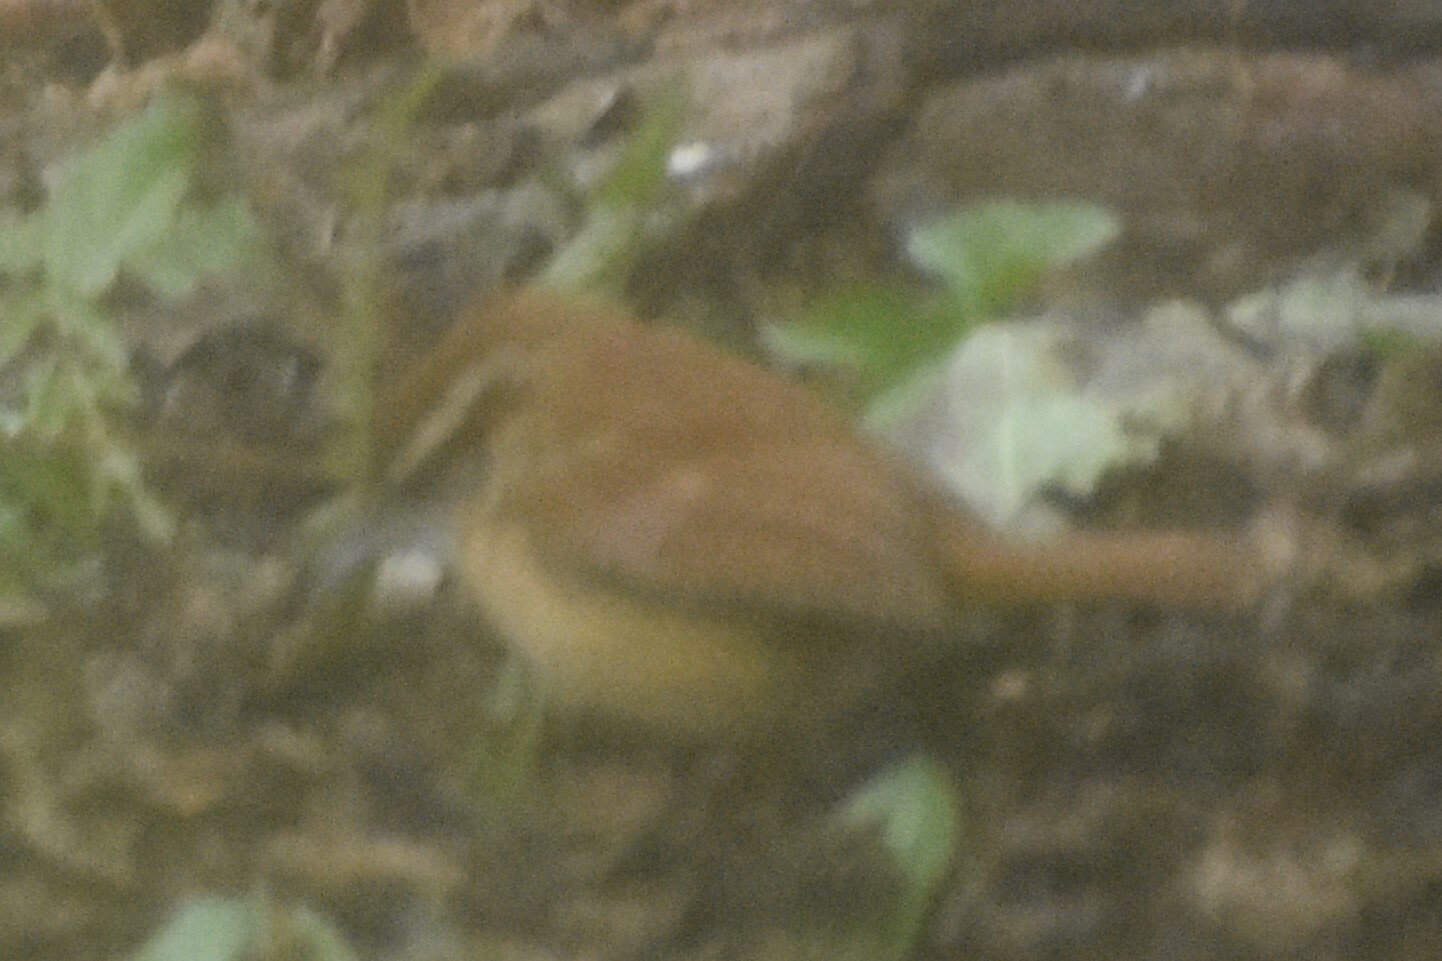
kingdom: Animalia
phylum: Chordata
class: Aves
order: Passeriformes
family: Troglodytidae
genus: Thryothorus
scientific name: Thryothorus ludovicianus
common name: Carolina wren
